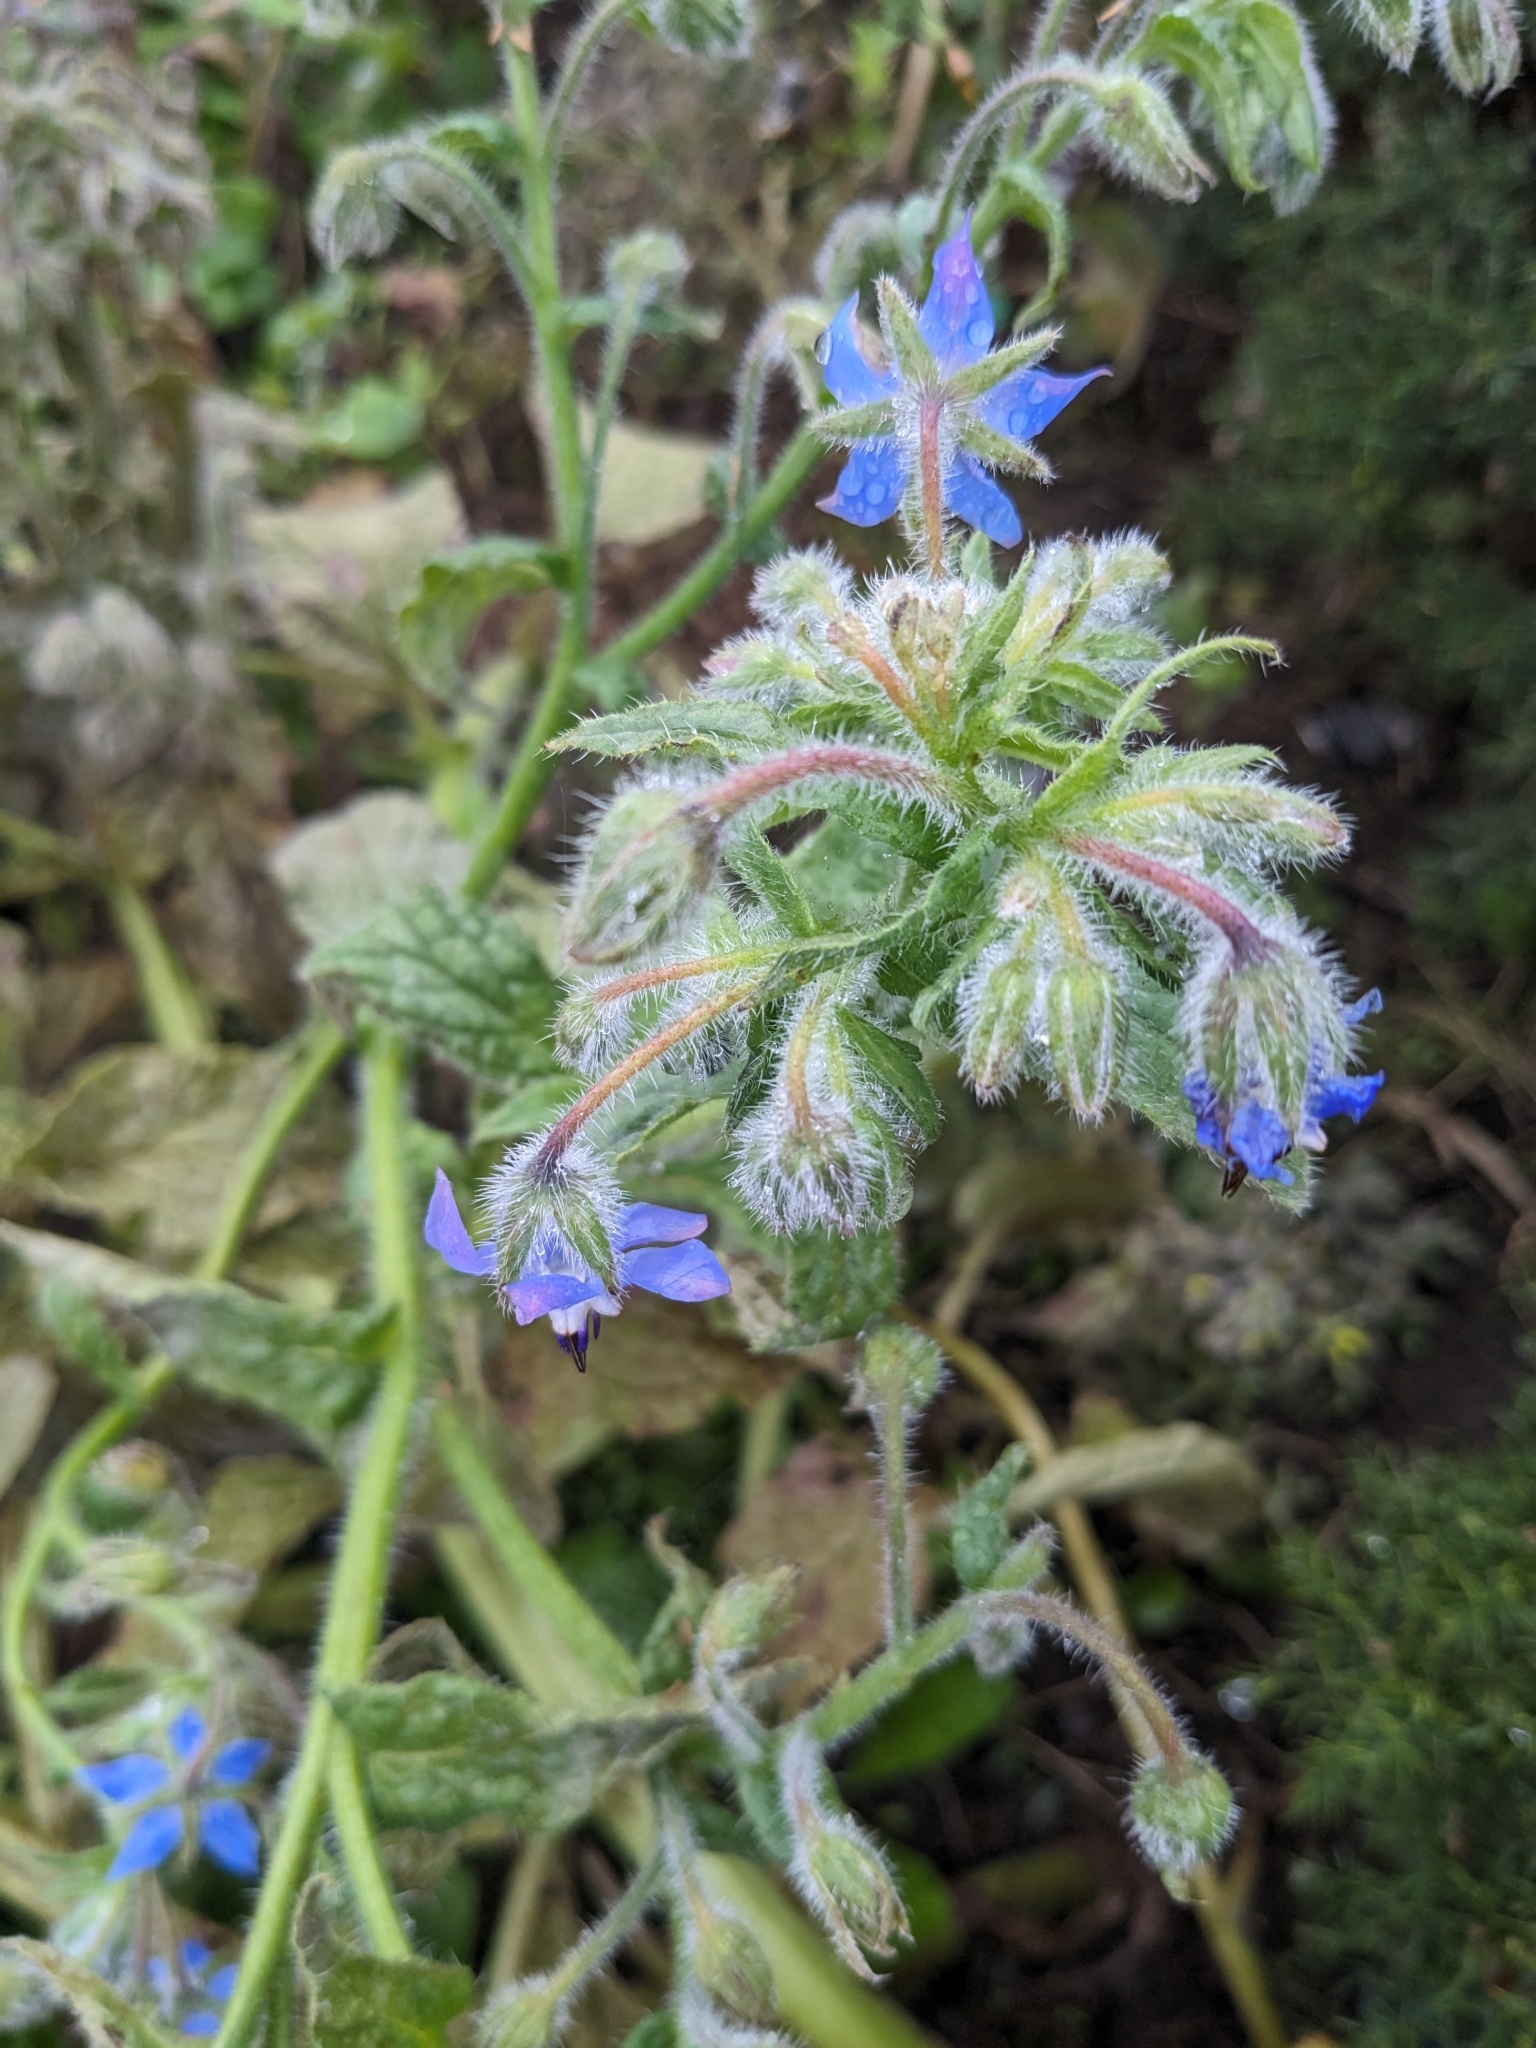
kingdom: Plantae
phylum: Tracheophyta
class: Magnoliopsida
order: Boraginales
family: Boraginaceae
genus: Borago
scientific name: Borago officinalis
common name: Borage
